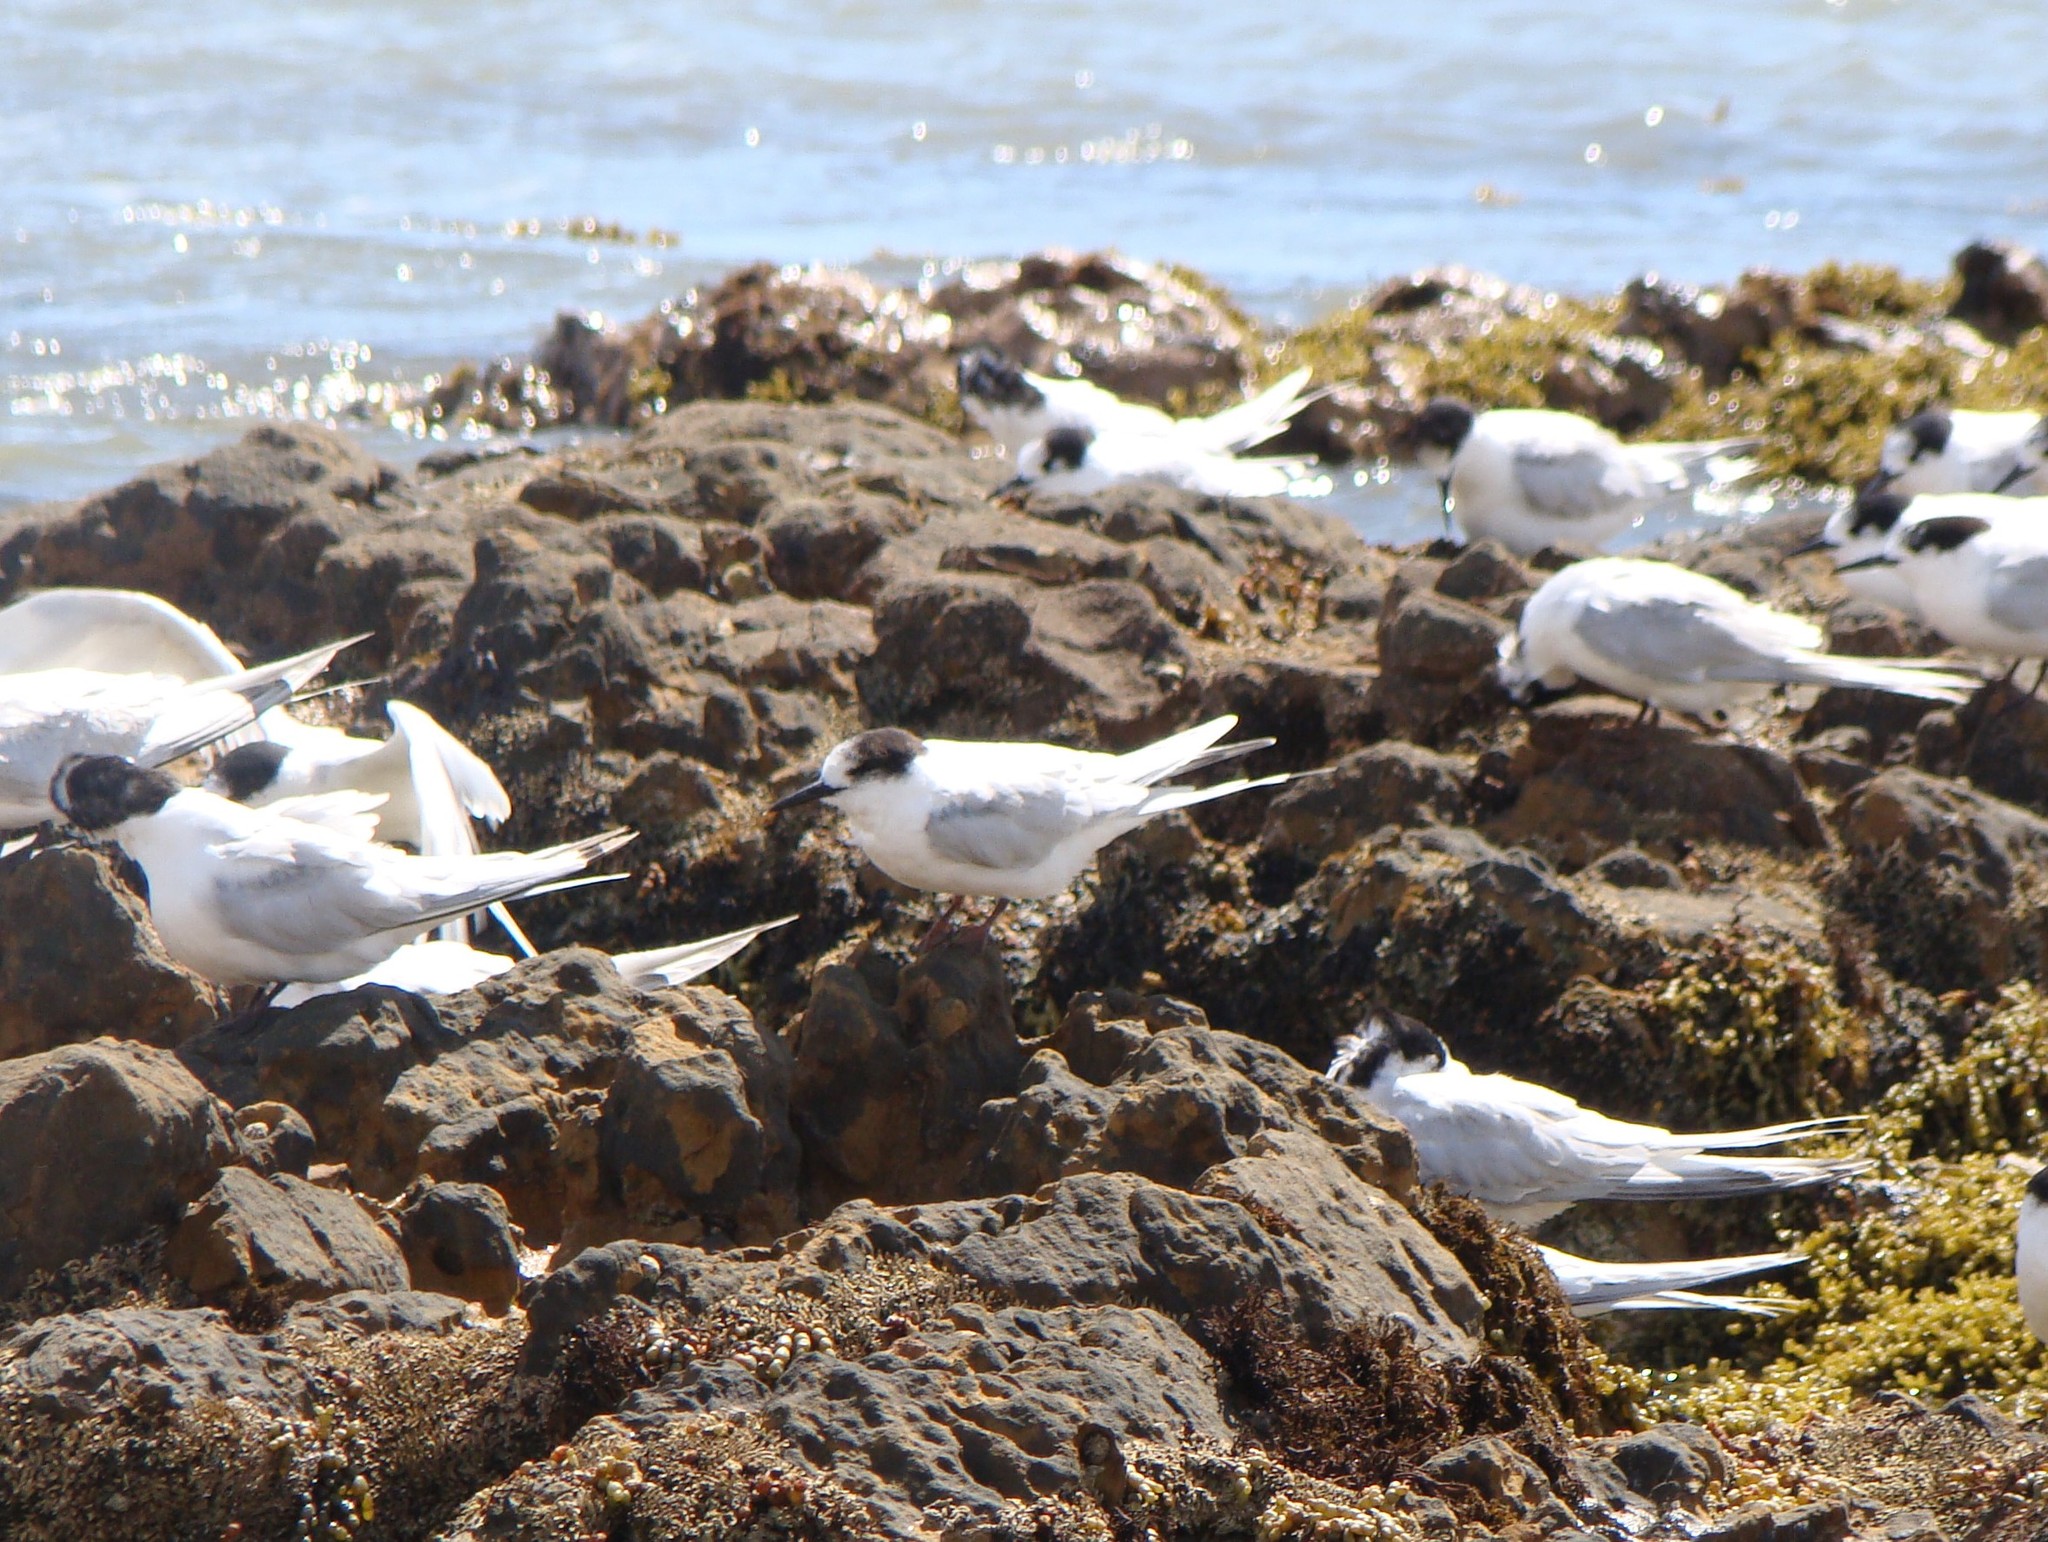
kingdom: Animalia
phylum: Chordata
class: Aves
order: Charadriiformes
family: Laridae
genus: Sterna
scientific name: Sterna striata
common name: White-fronted tern
